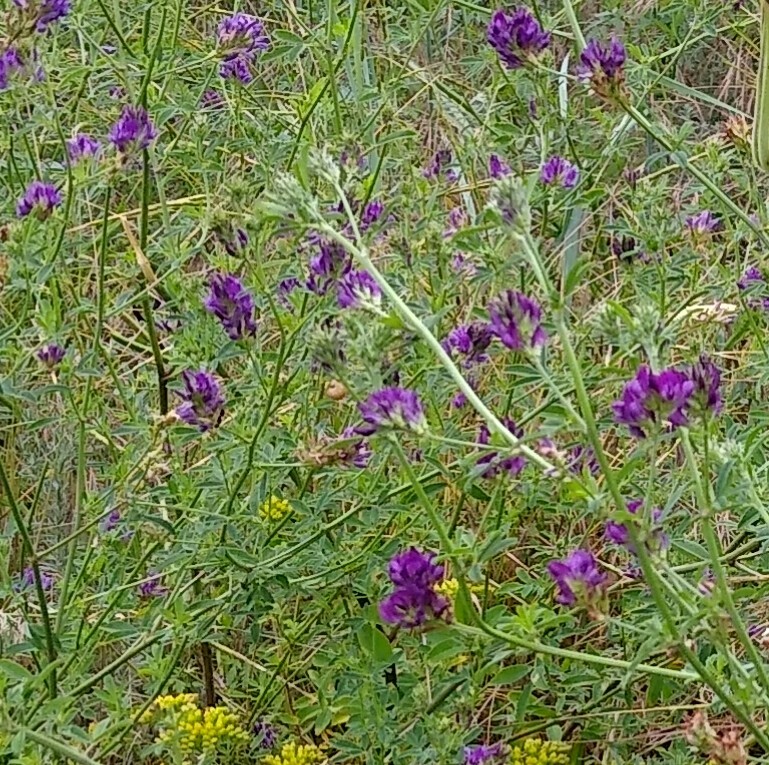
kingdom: Plantae
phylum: Tracheophyta
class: Magnoliopsida
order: Fabales
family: Fabaceae
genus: Medicago
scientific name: Medicago sativa
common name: Alfalfa
